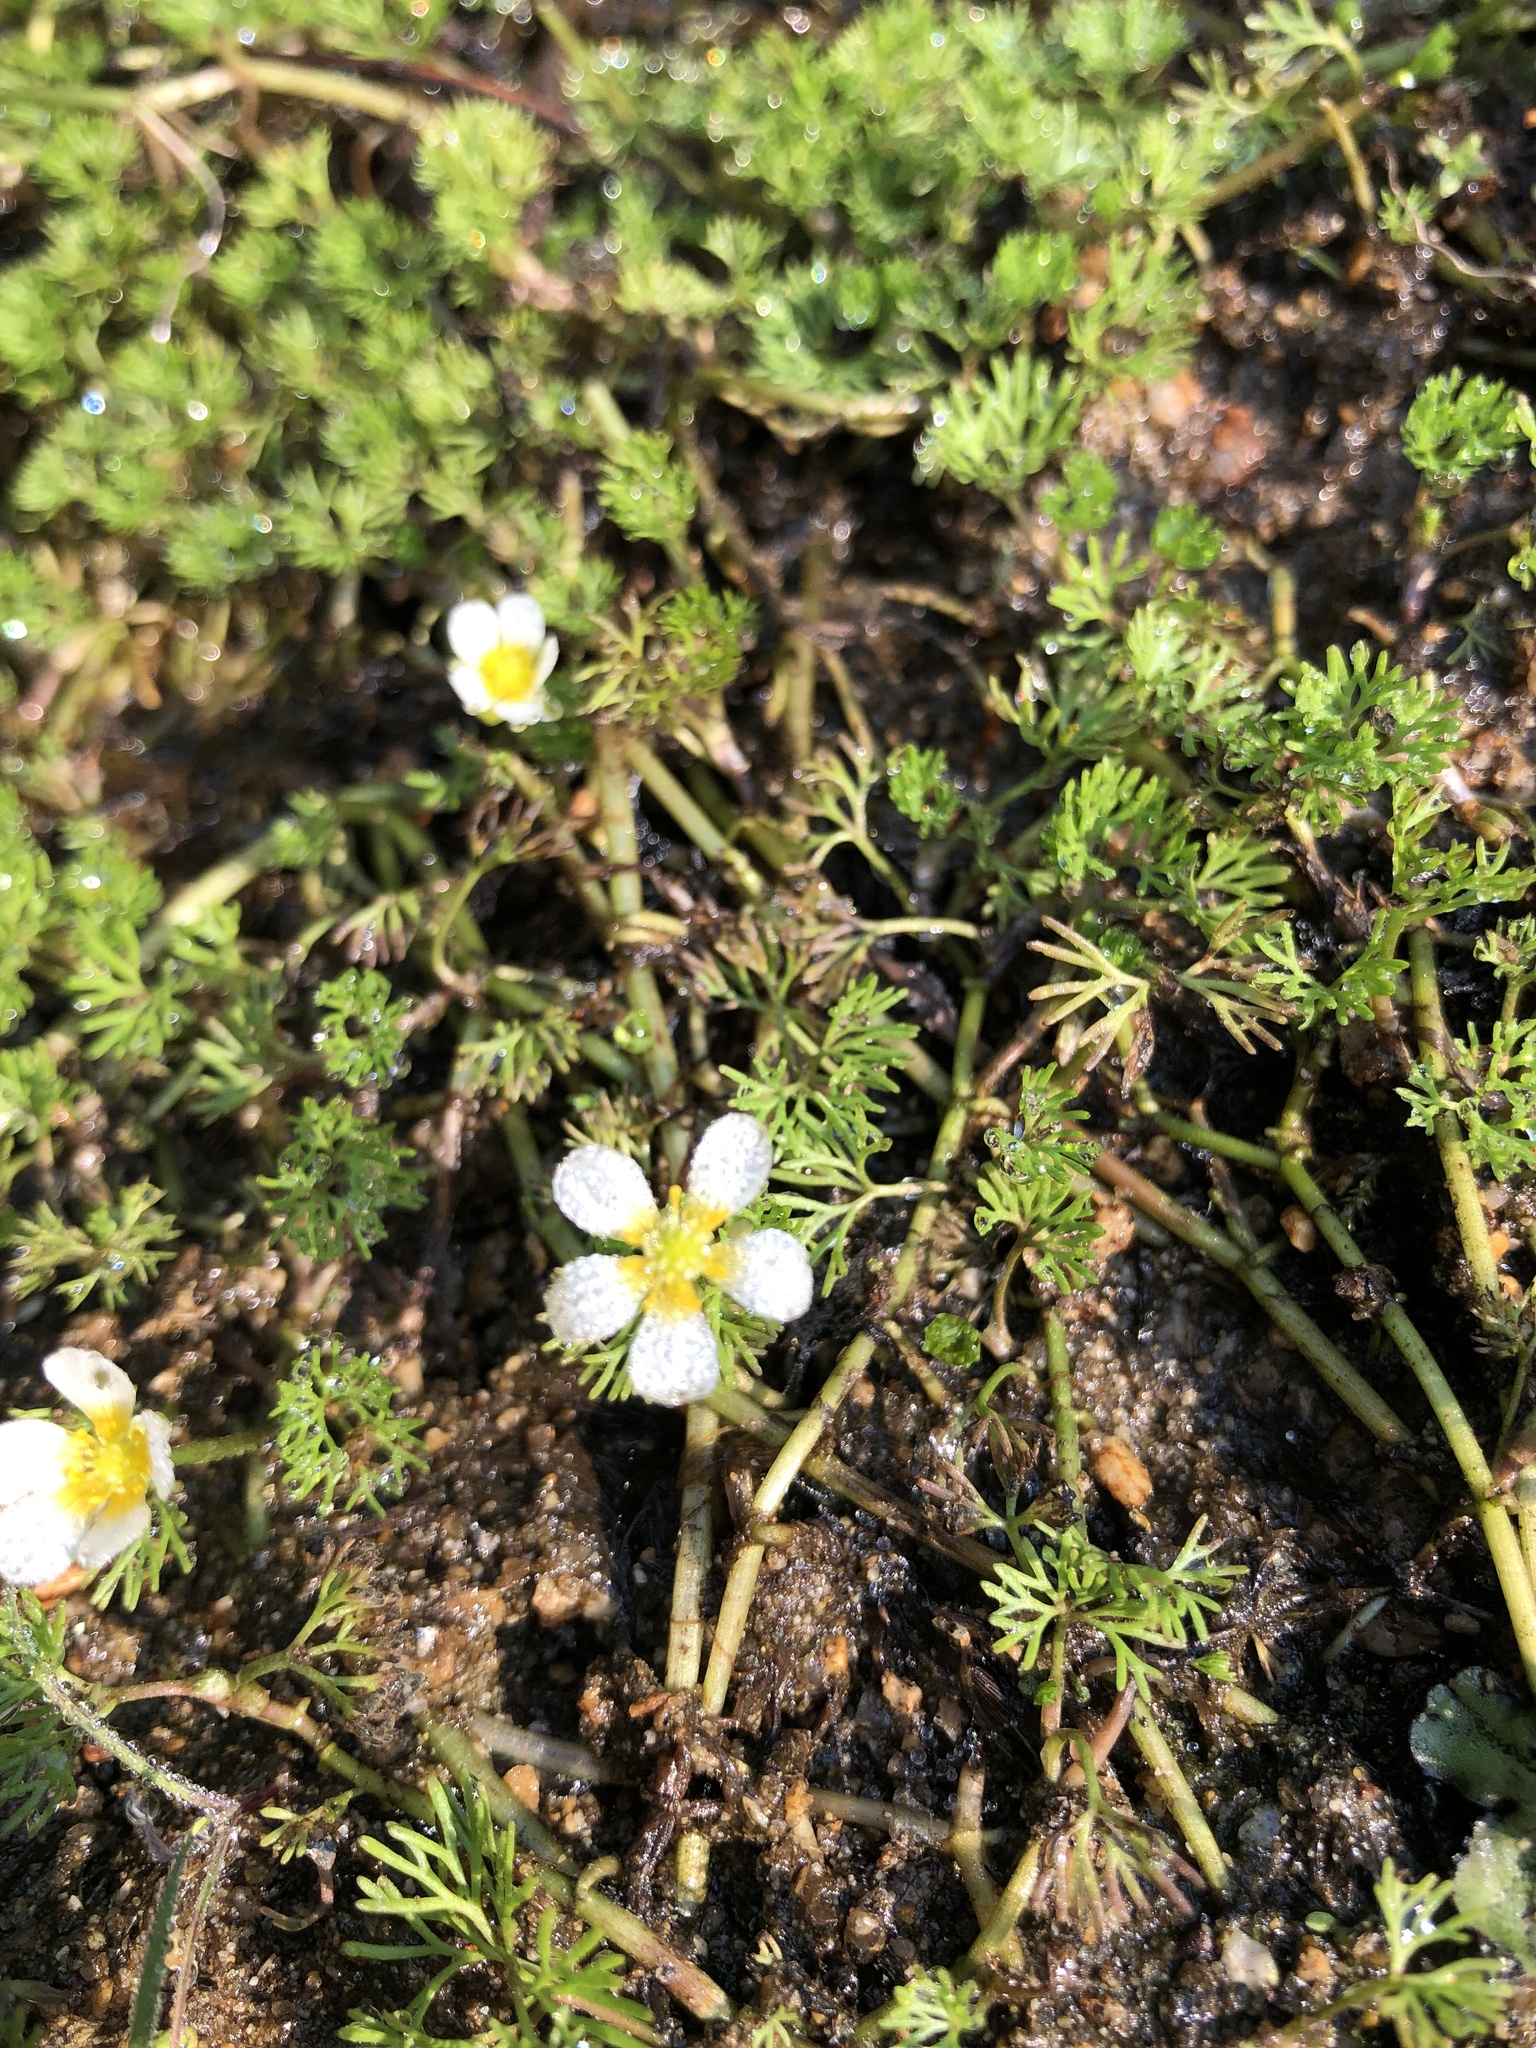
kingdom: Plantae
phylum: Tracheophyta
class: Magnoliopsida
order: Ranunculales
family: Ranunculaceae
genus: Ranunculus
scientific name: Ranunculus aquatilis
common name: Common water-crowfoot
